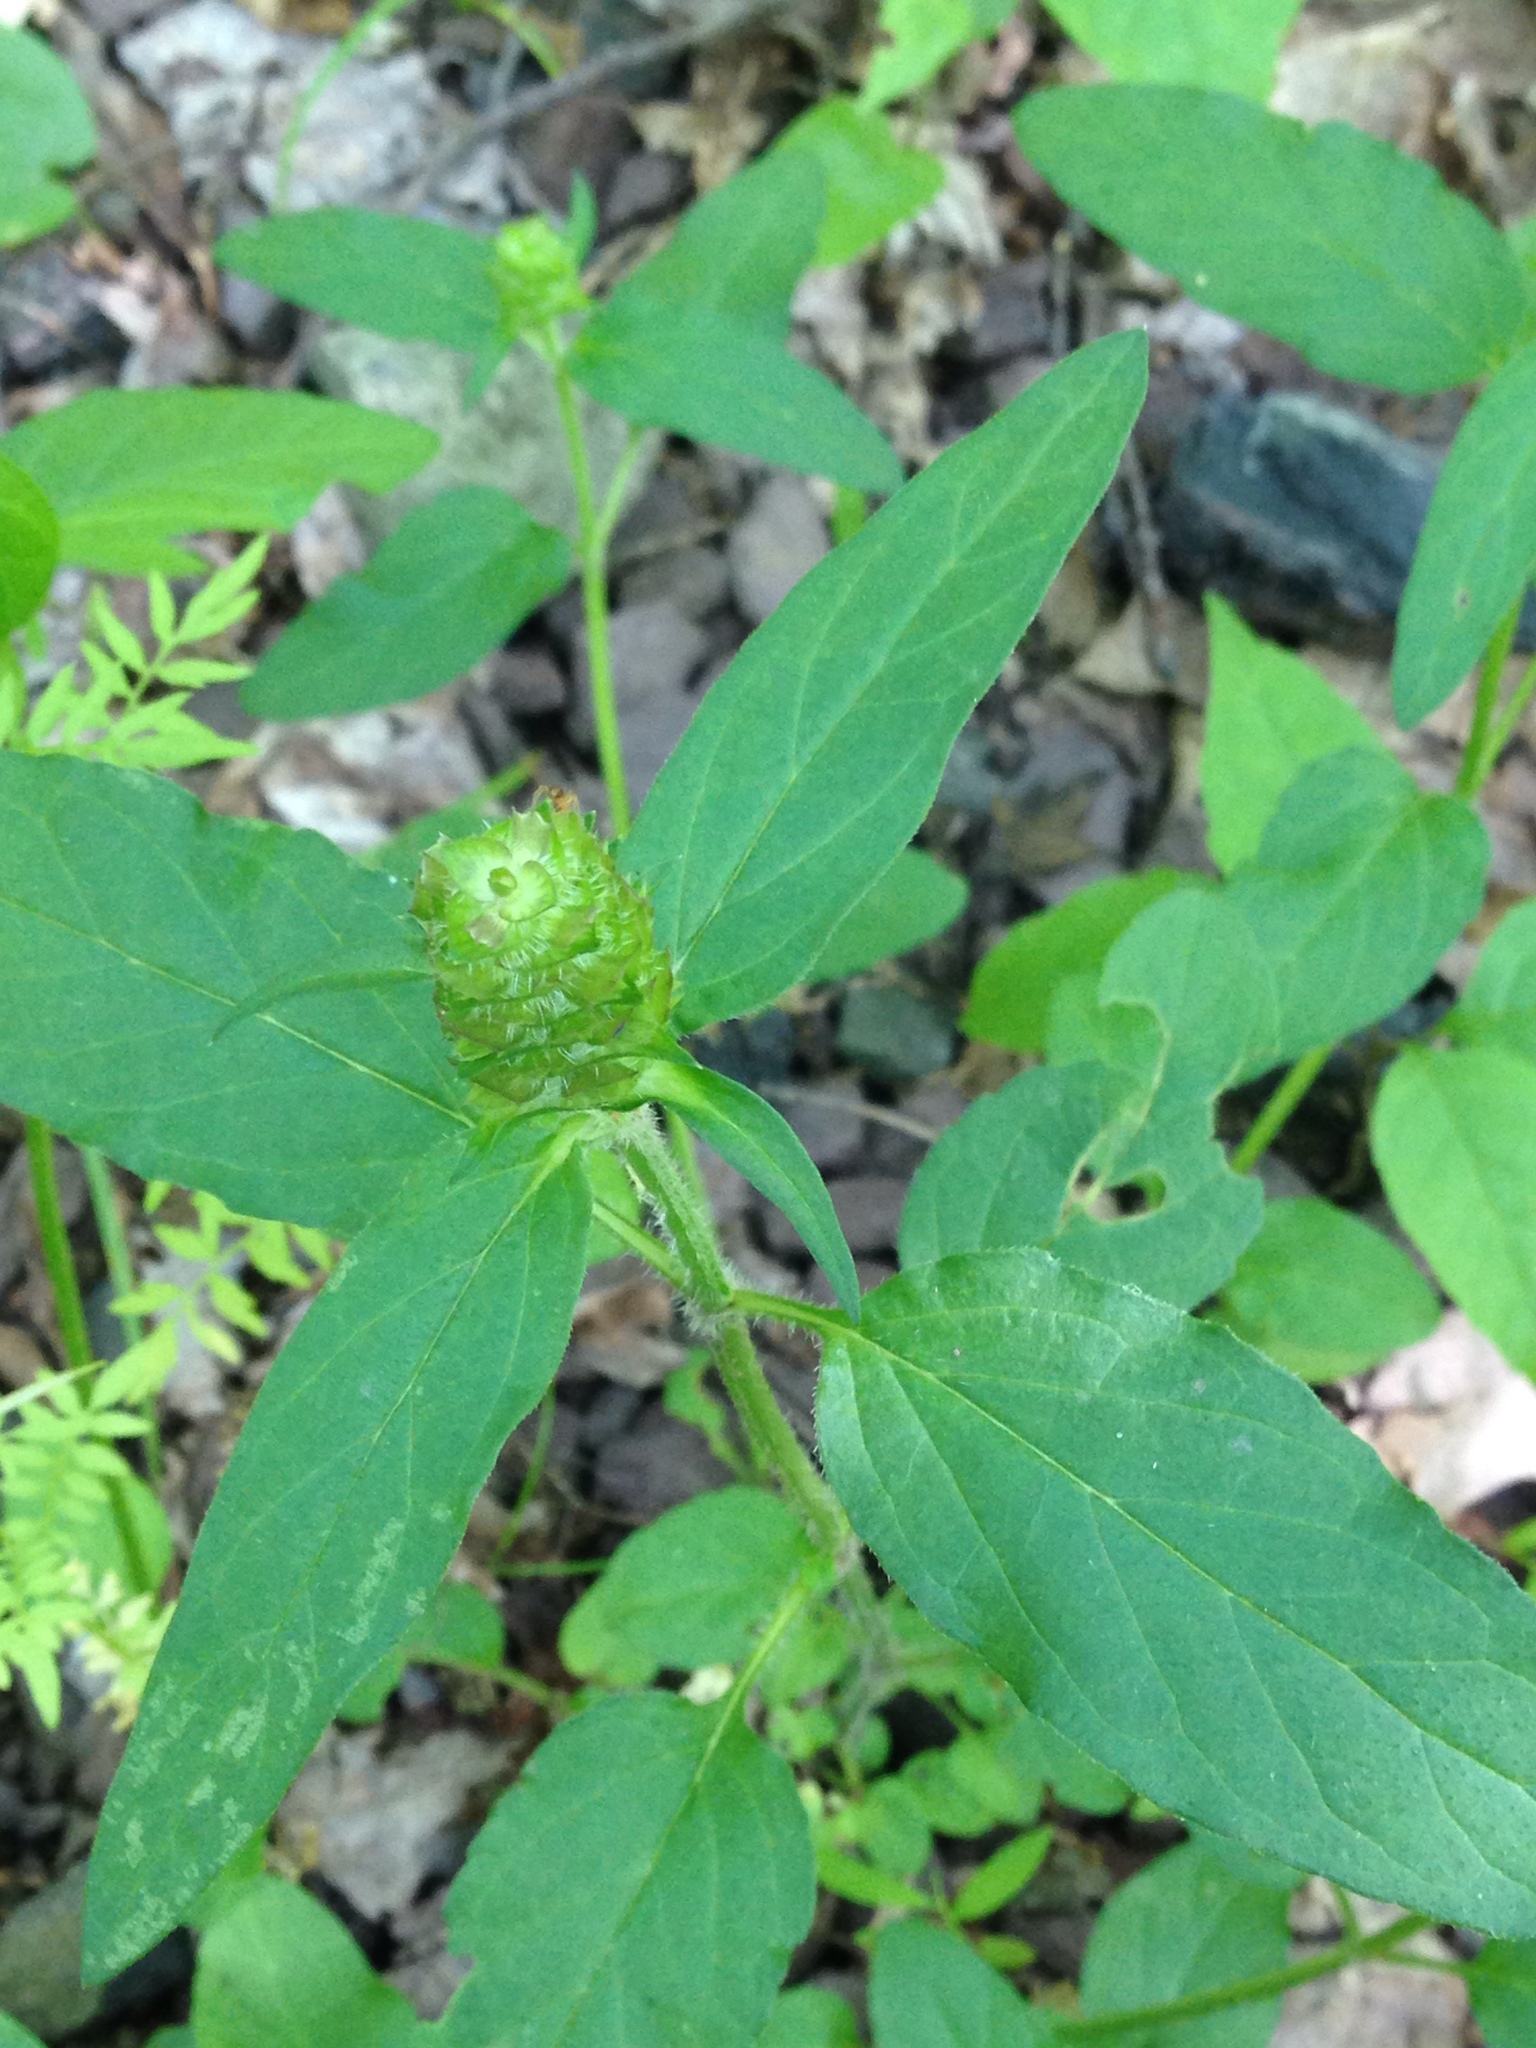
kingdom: Plantae
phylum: Tracheophyta
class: Magnoliopsida
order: Lamiales
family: Lamiaceae
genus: Prunella
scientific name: Prunella vulgaris
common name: Heal-all
